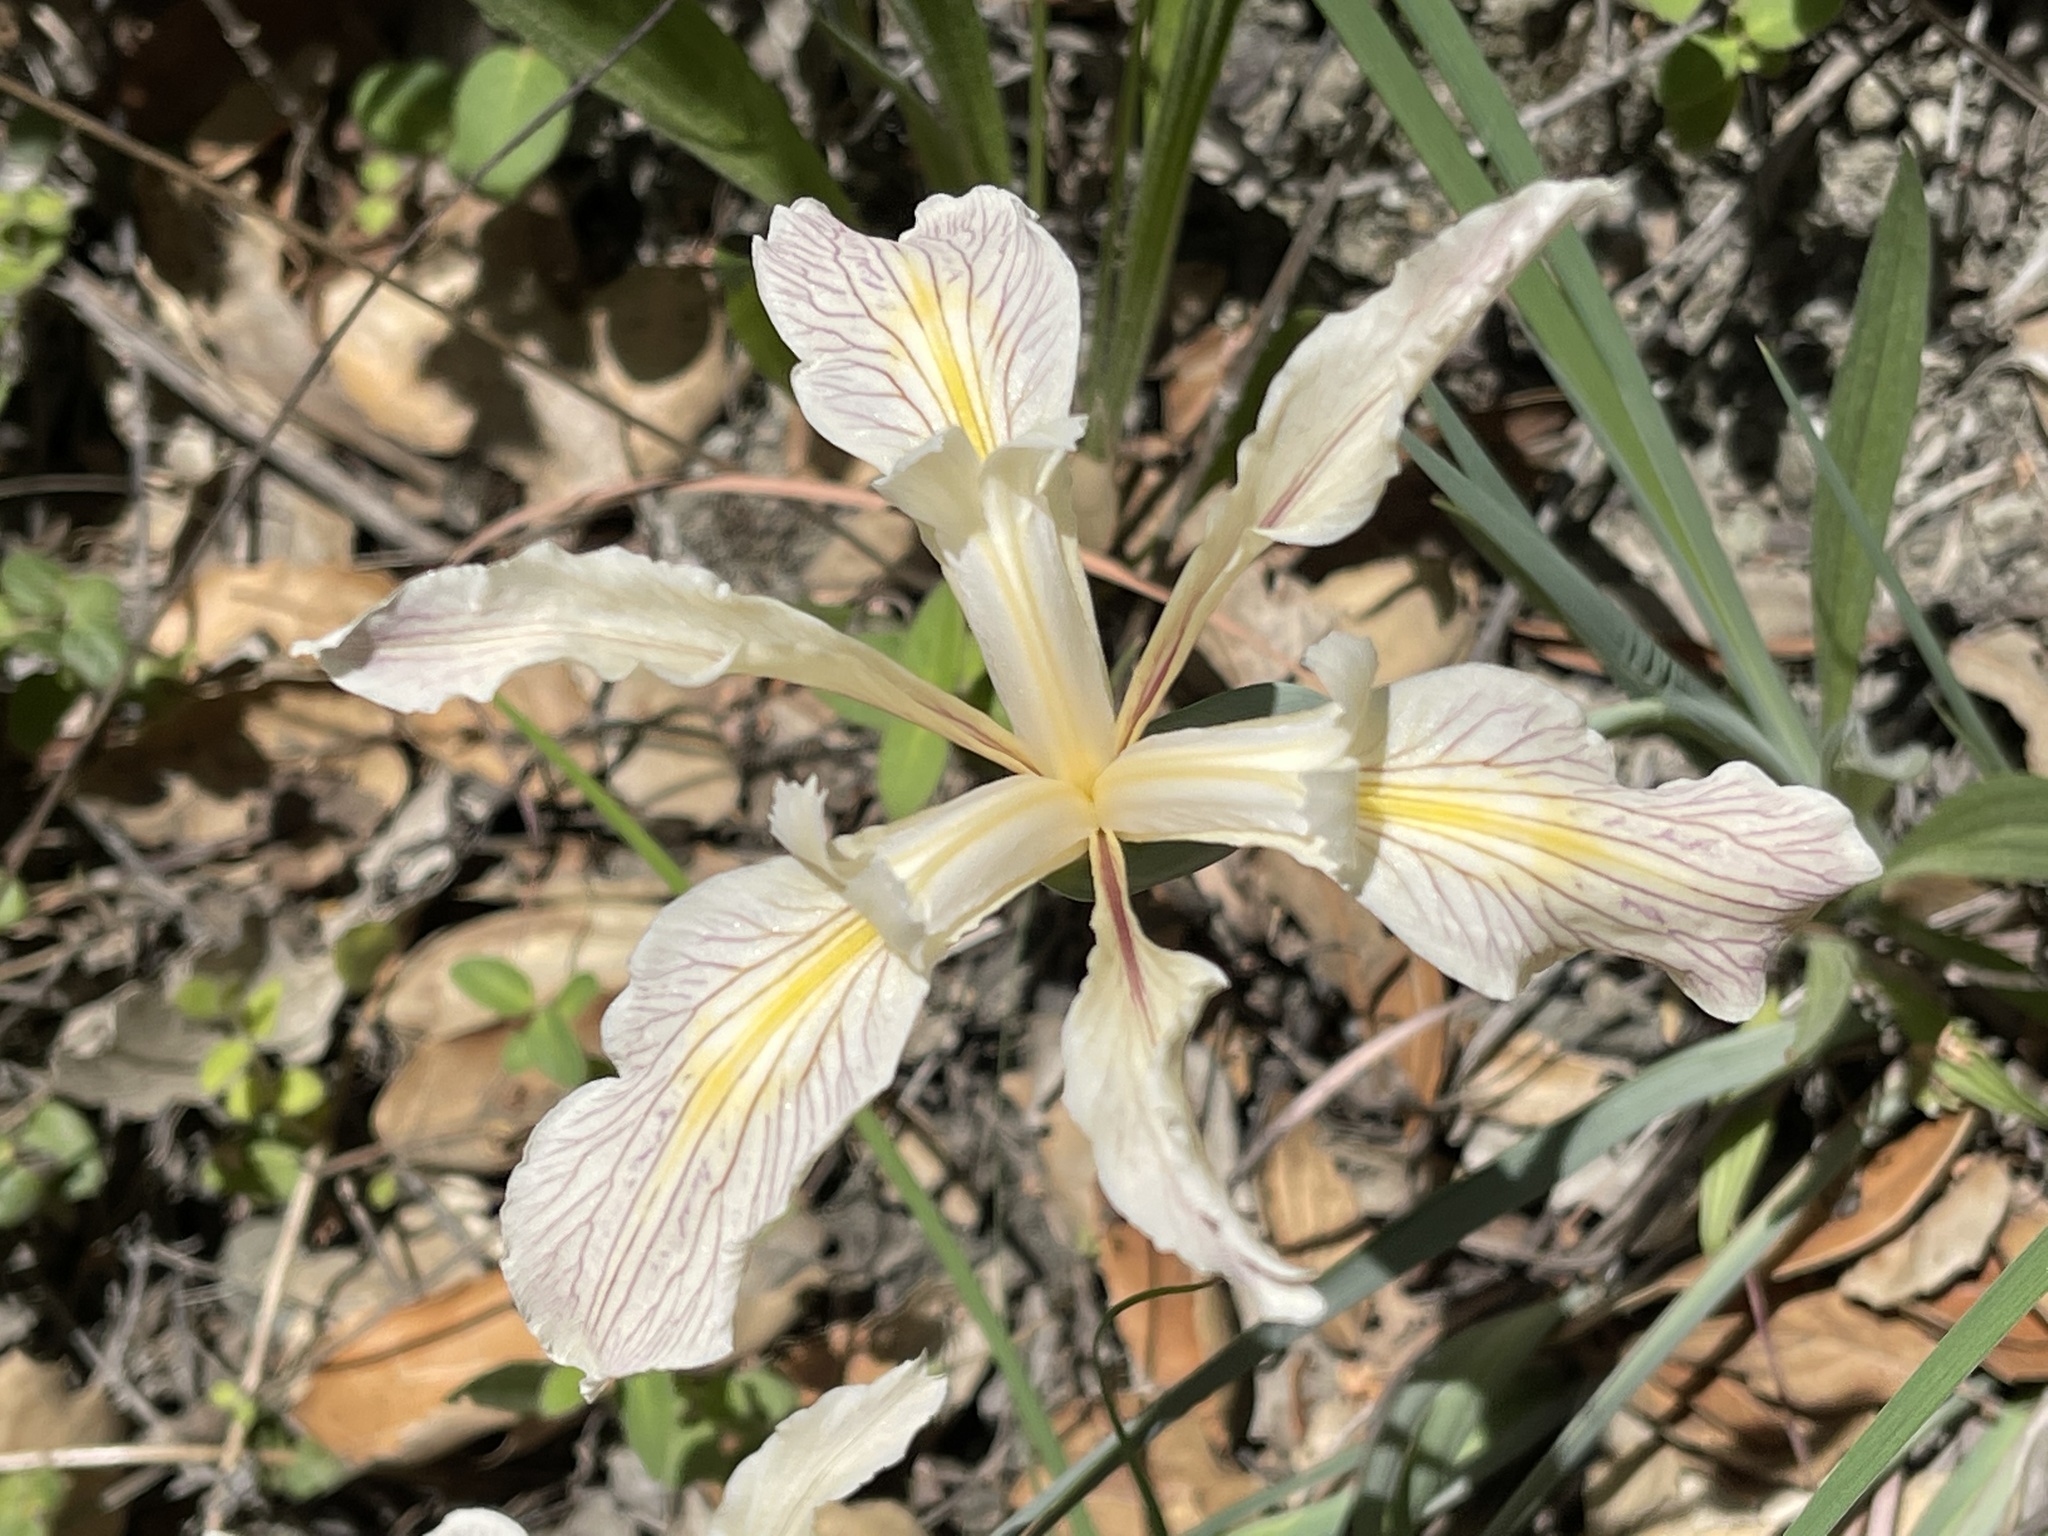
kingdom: Plantae
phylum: Tracheophyta
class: Liliopsida
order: Asparagales
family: Iridaceae
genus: Iris
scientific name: Iris fernaldii
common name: Fernald's iris
